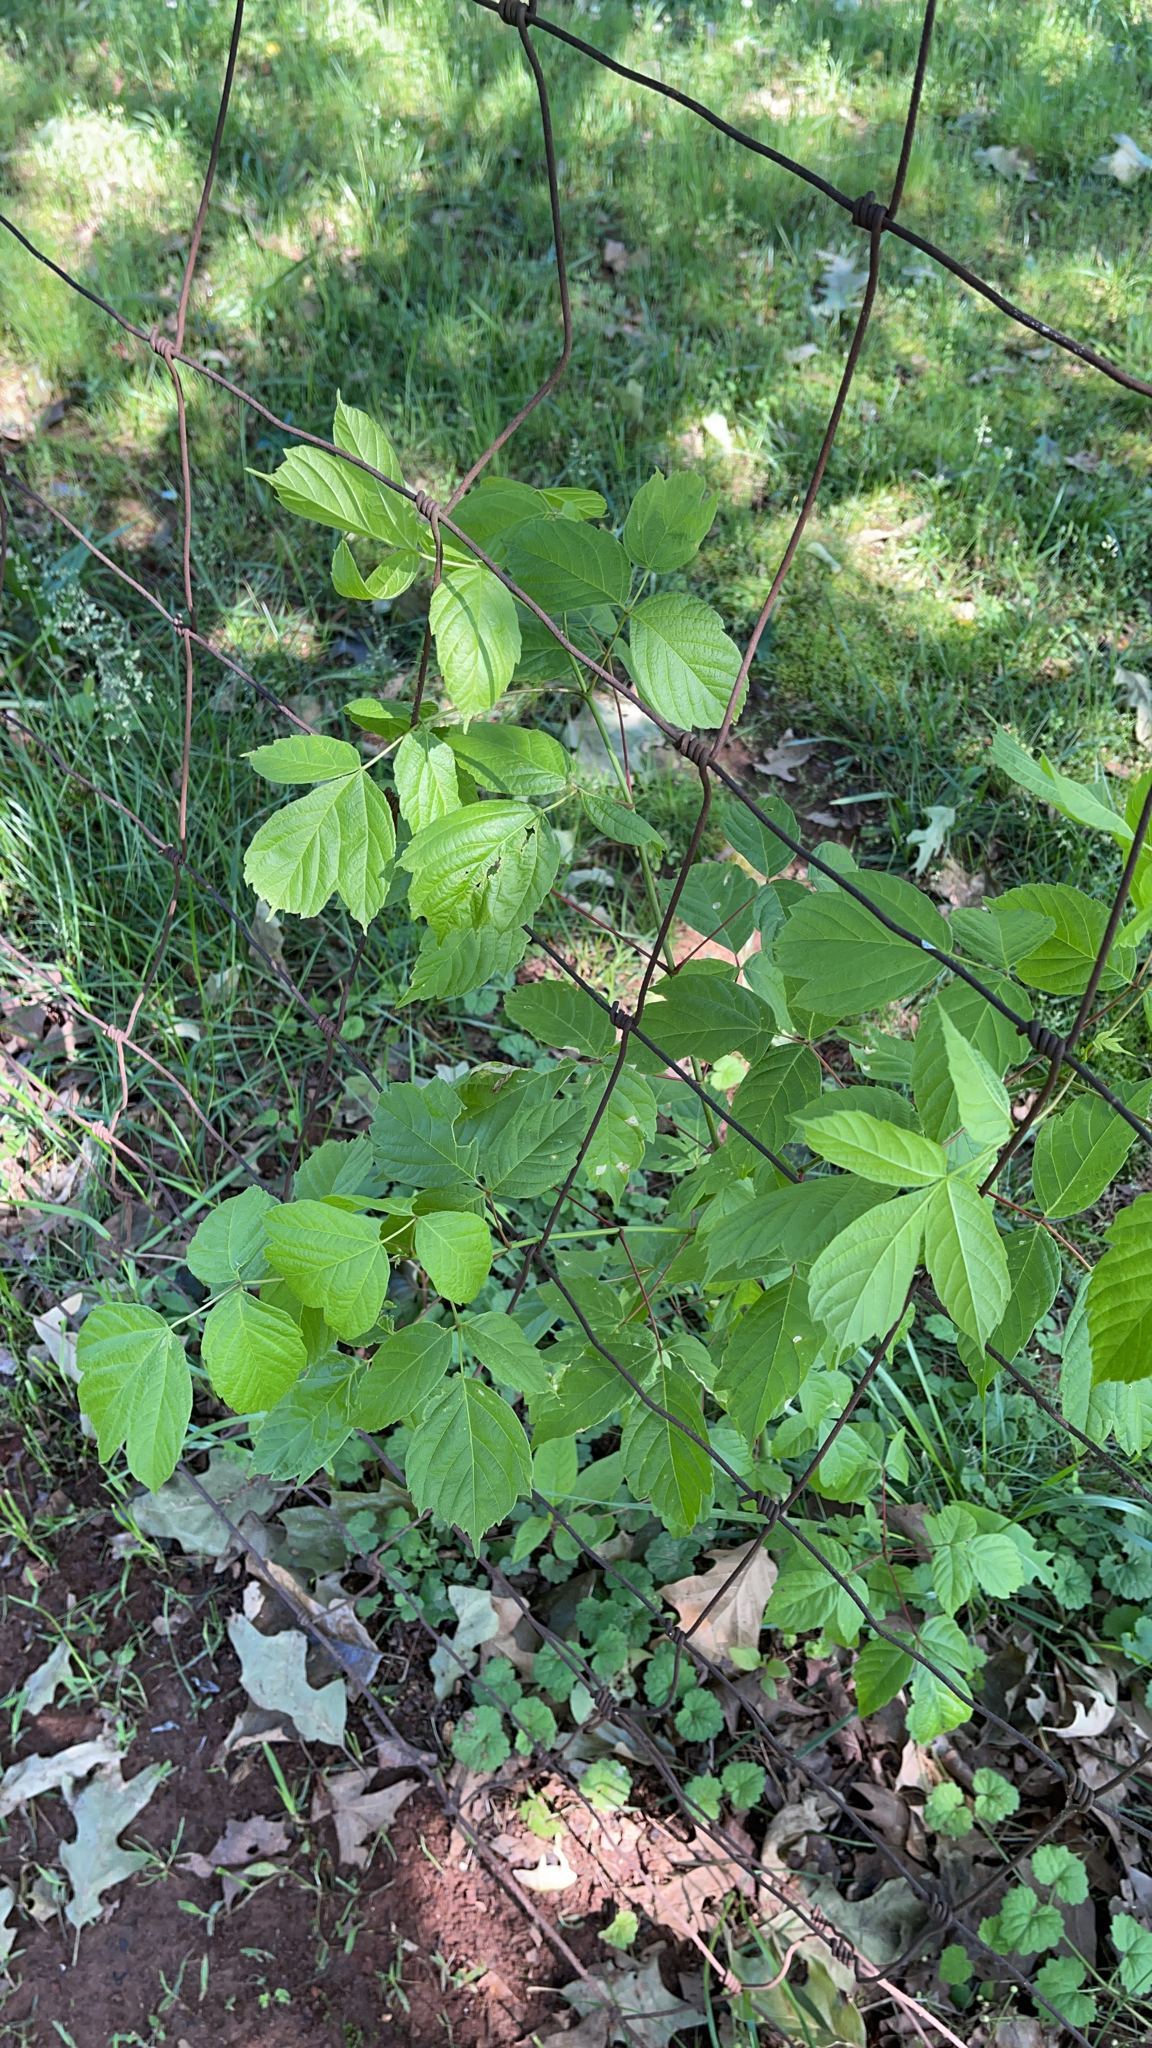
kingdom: Plantae
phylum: Tracheophyta
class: Magnoliopsida
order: Sapindales
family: Sapindaceae
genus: Acer
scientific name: Acer negundo
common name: Ashleaf maple
